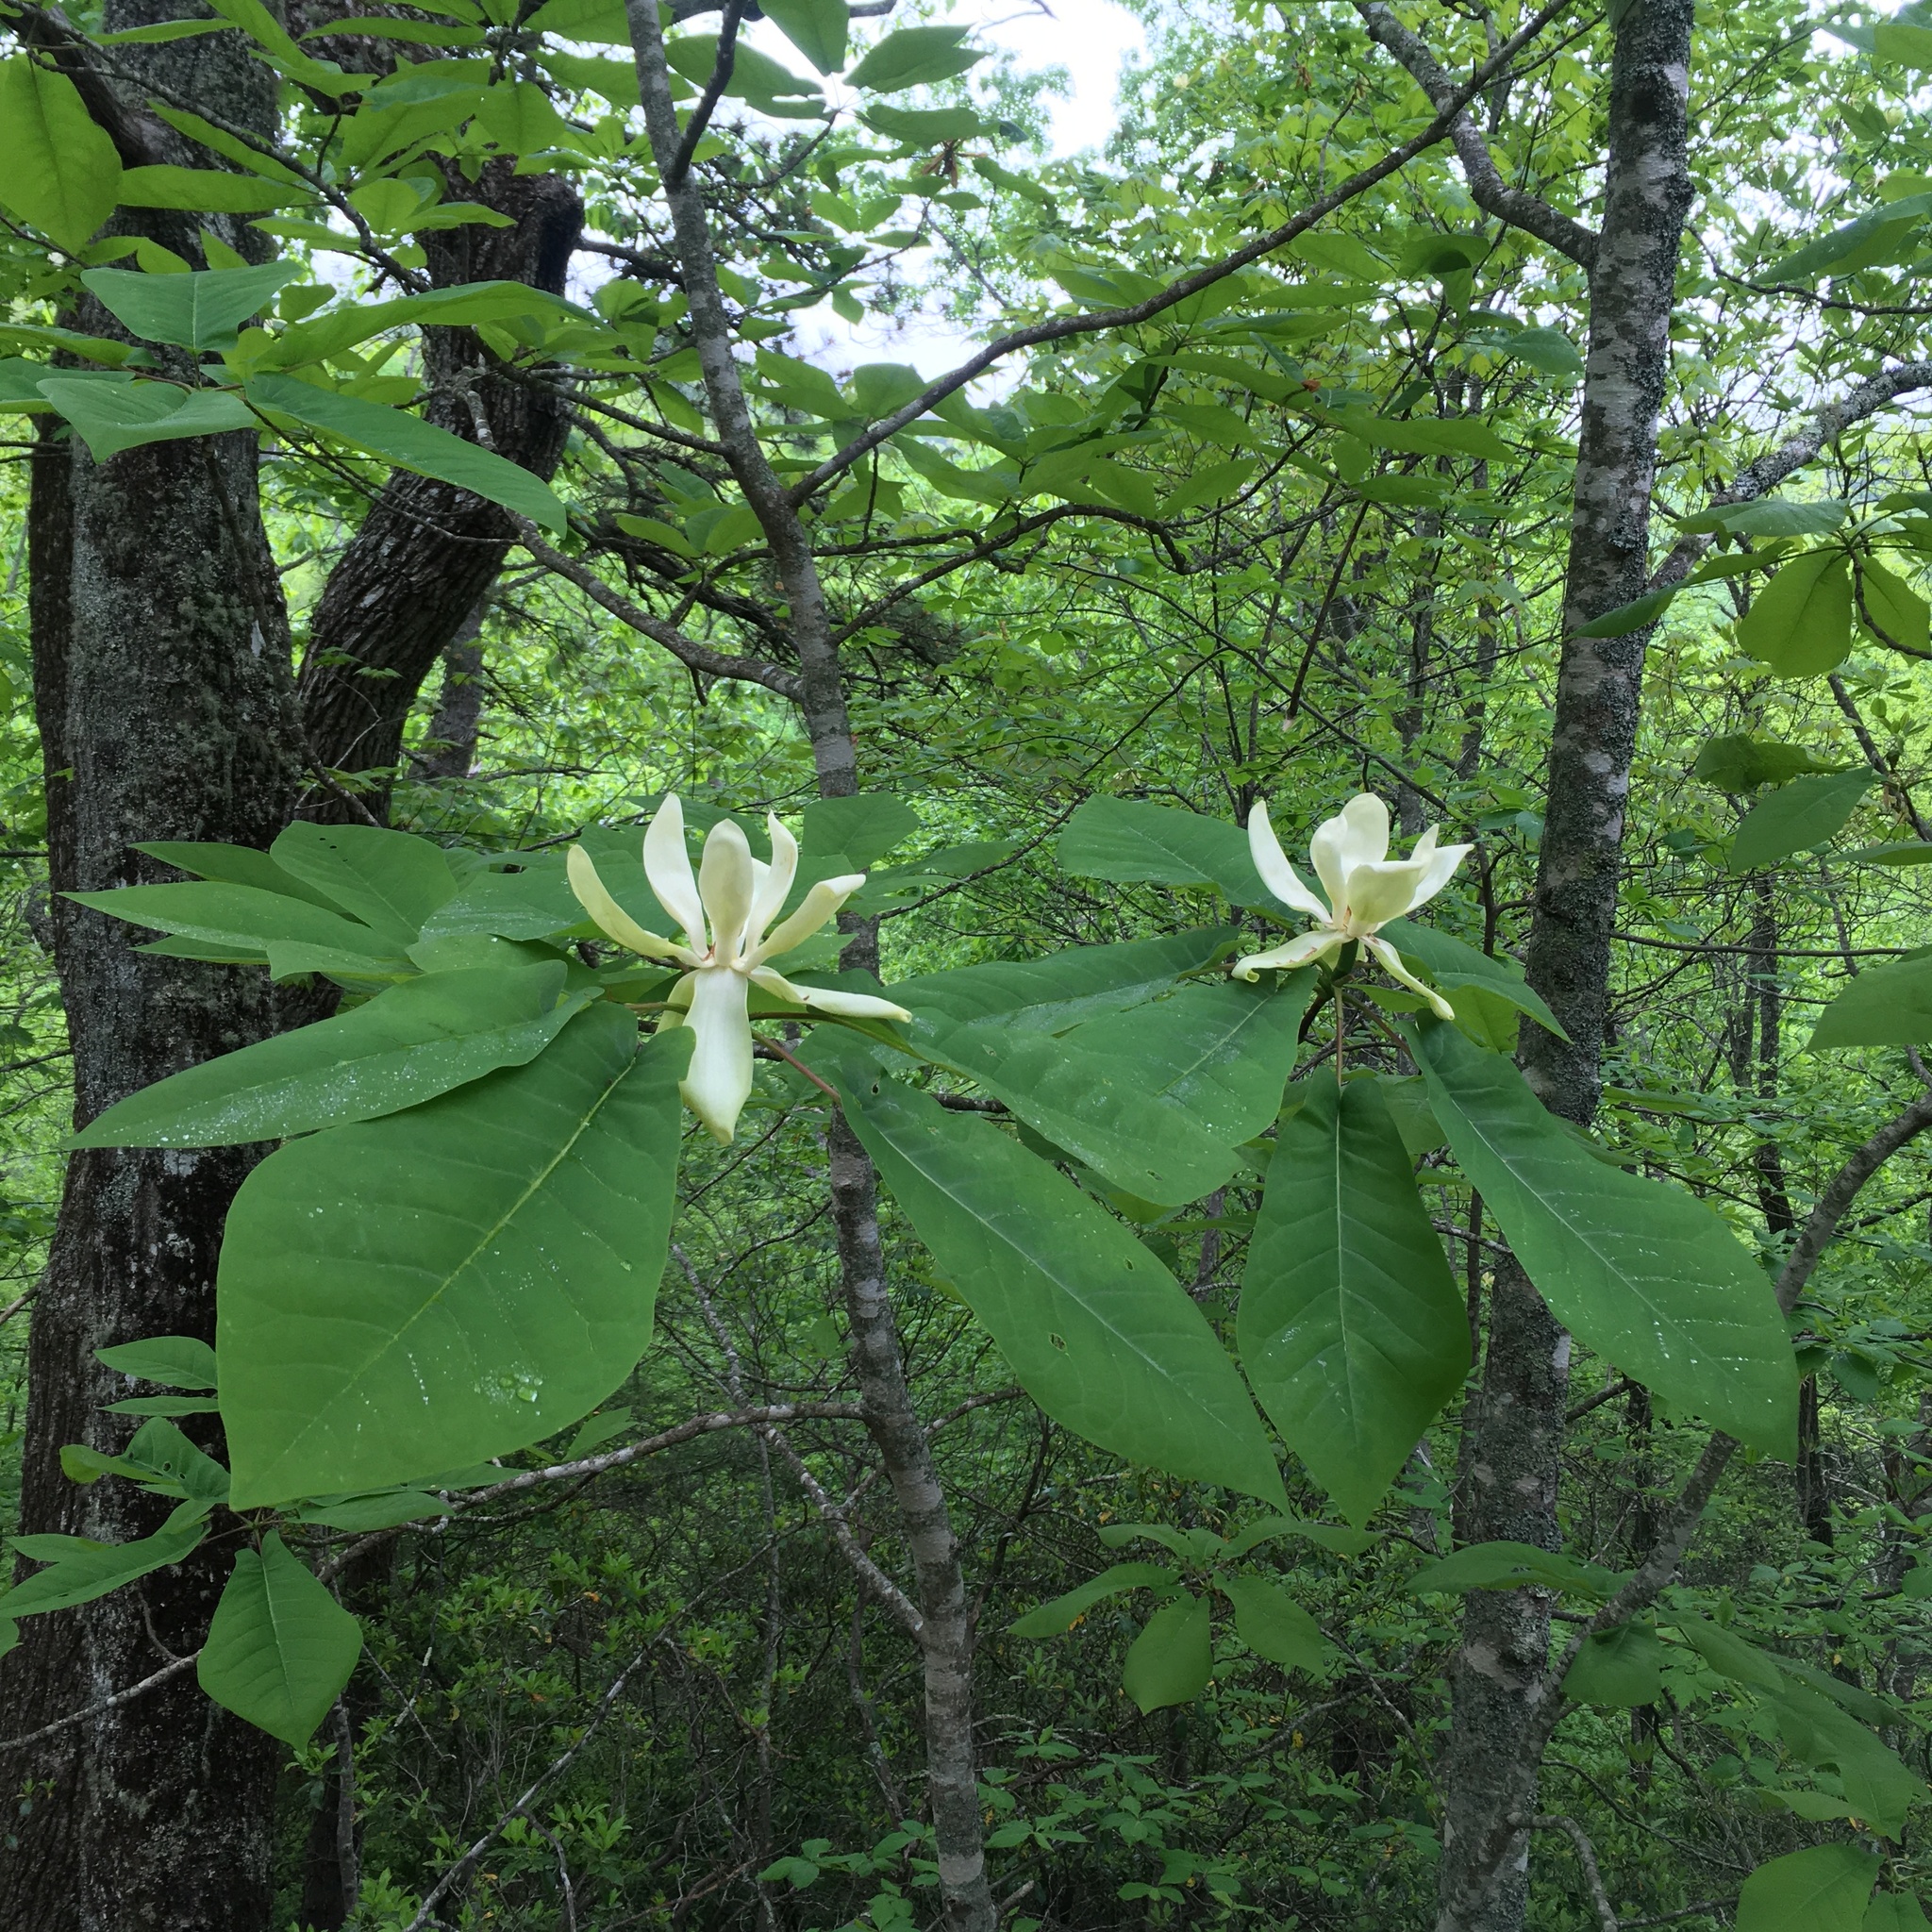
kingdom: Plantae
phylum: Tracheophyta
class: Magnoliopsida
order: Magnoliales
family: Magnoliaceae
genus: Magnolia
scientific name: Magnolia fraseri
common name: Fraser's magnolia
